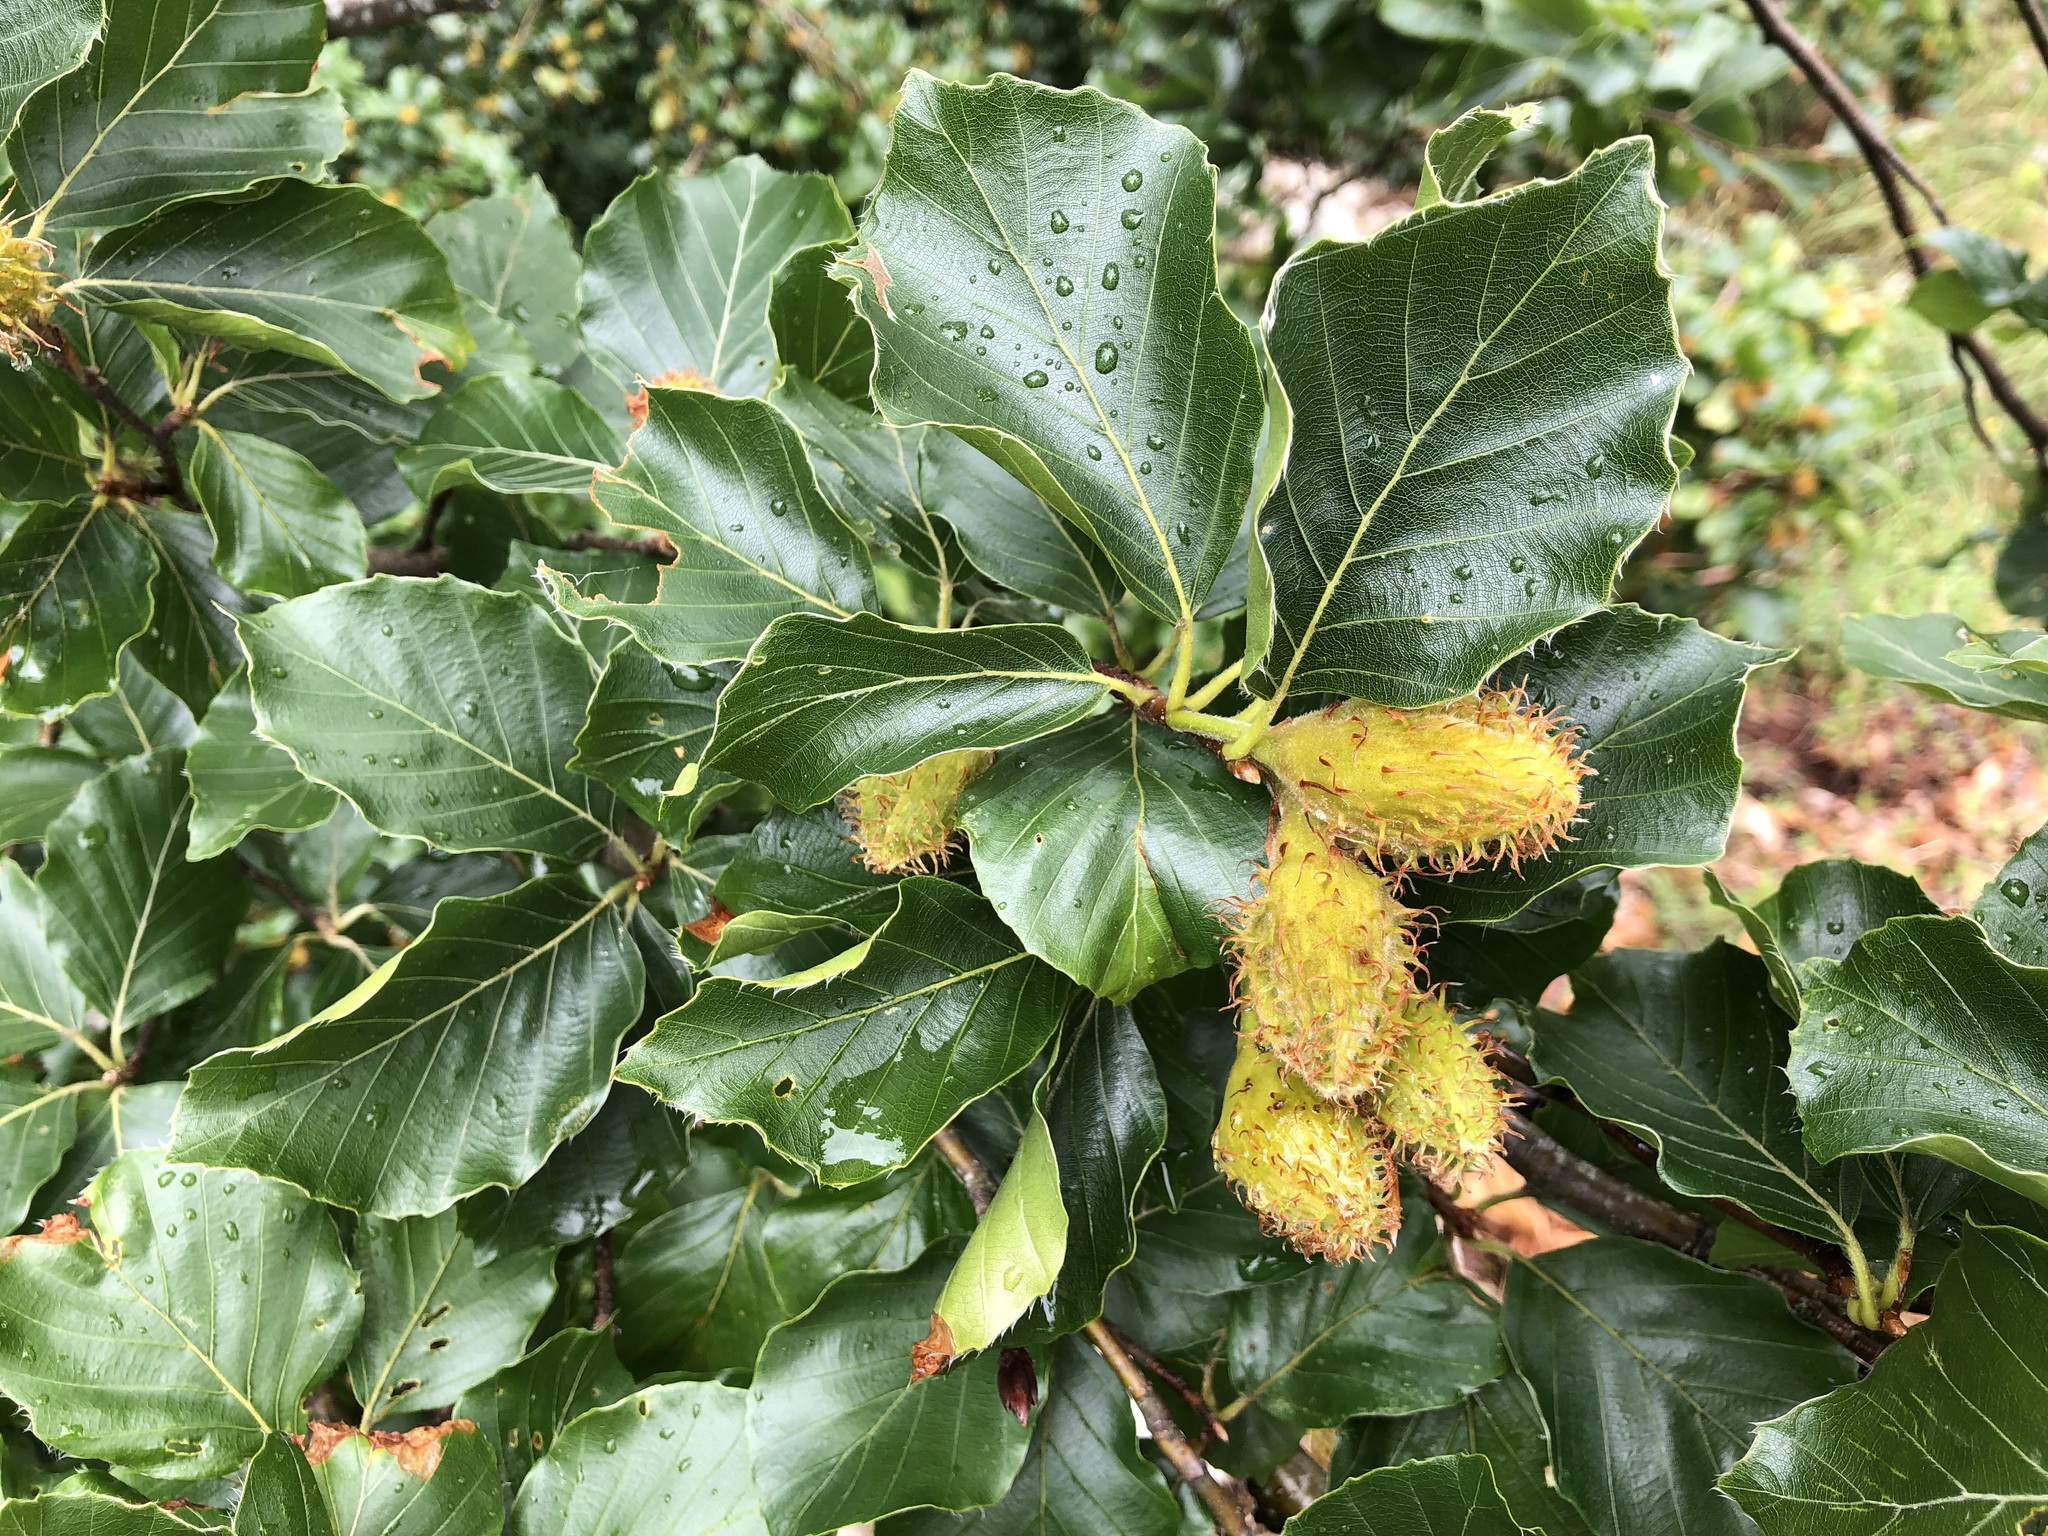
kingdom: Plantae
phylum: Tracheophyta
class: Magnoliopsida
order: Fagales
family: Fagaceae
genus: Fagus
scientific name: Fagus sylvatica
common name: Beech
